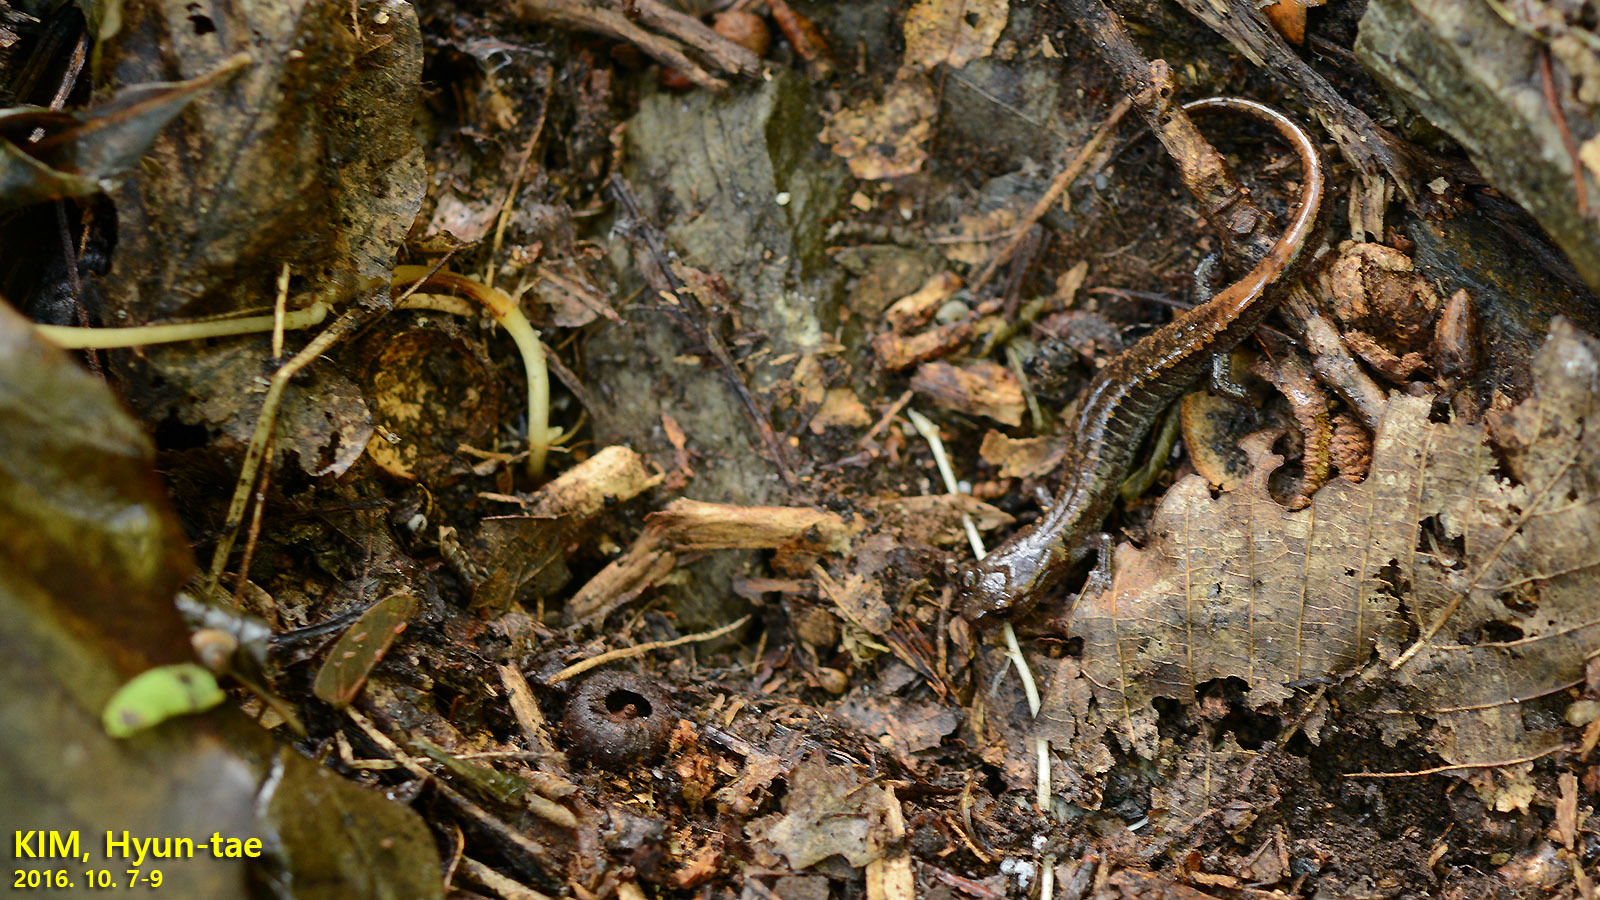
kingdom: Animalia
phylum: Chordata
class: Amphibia
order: Caudata
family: Plethodontidae
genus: Karsenia
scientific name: Karsenia koreana
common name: Korean crevice salamander
